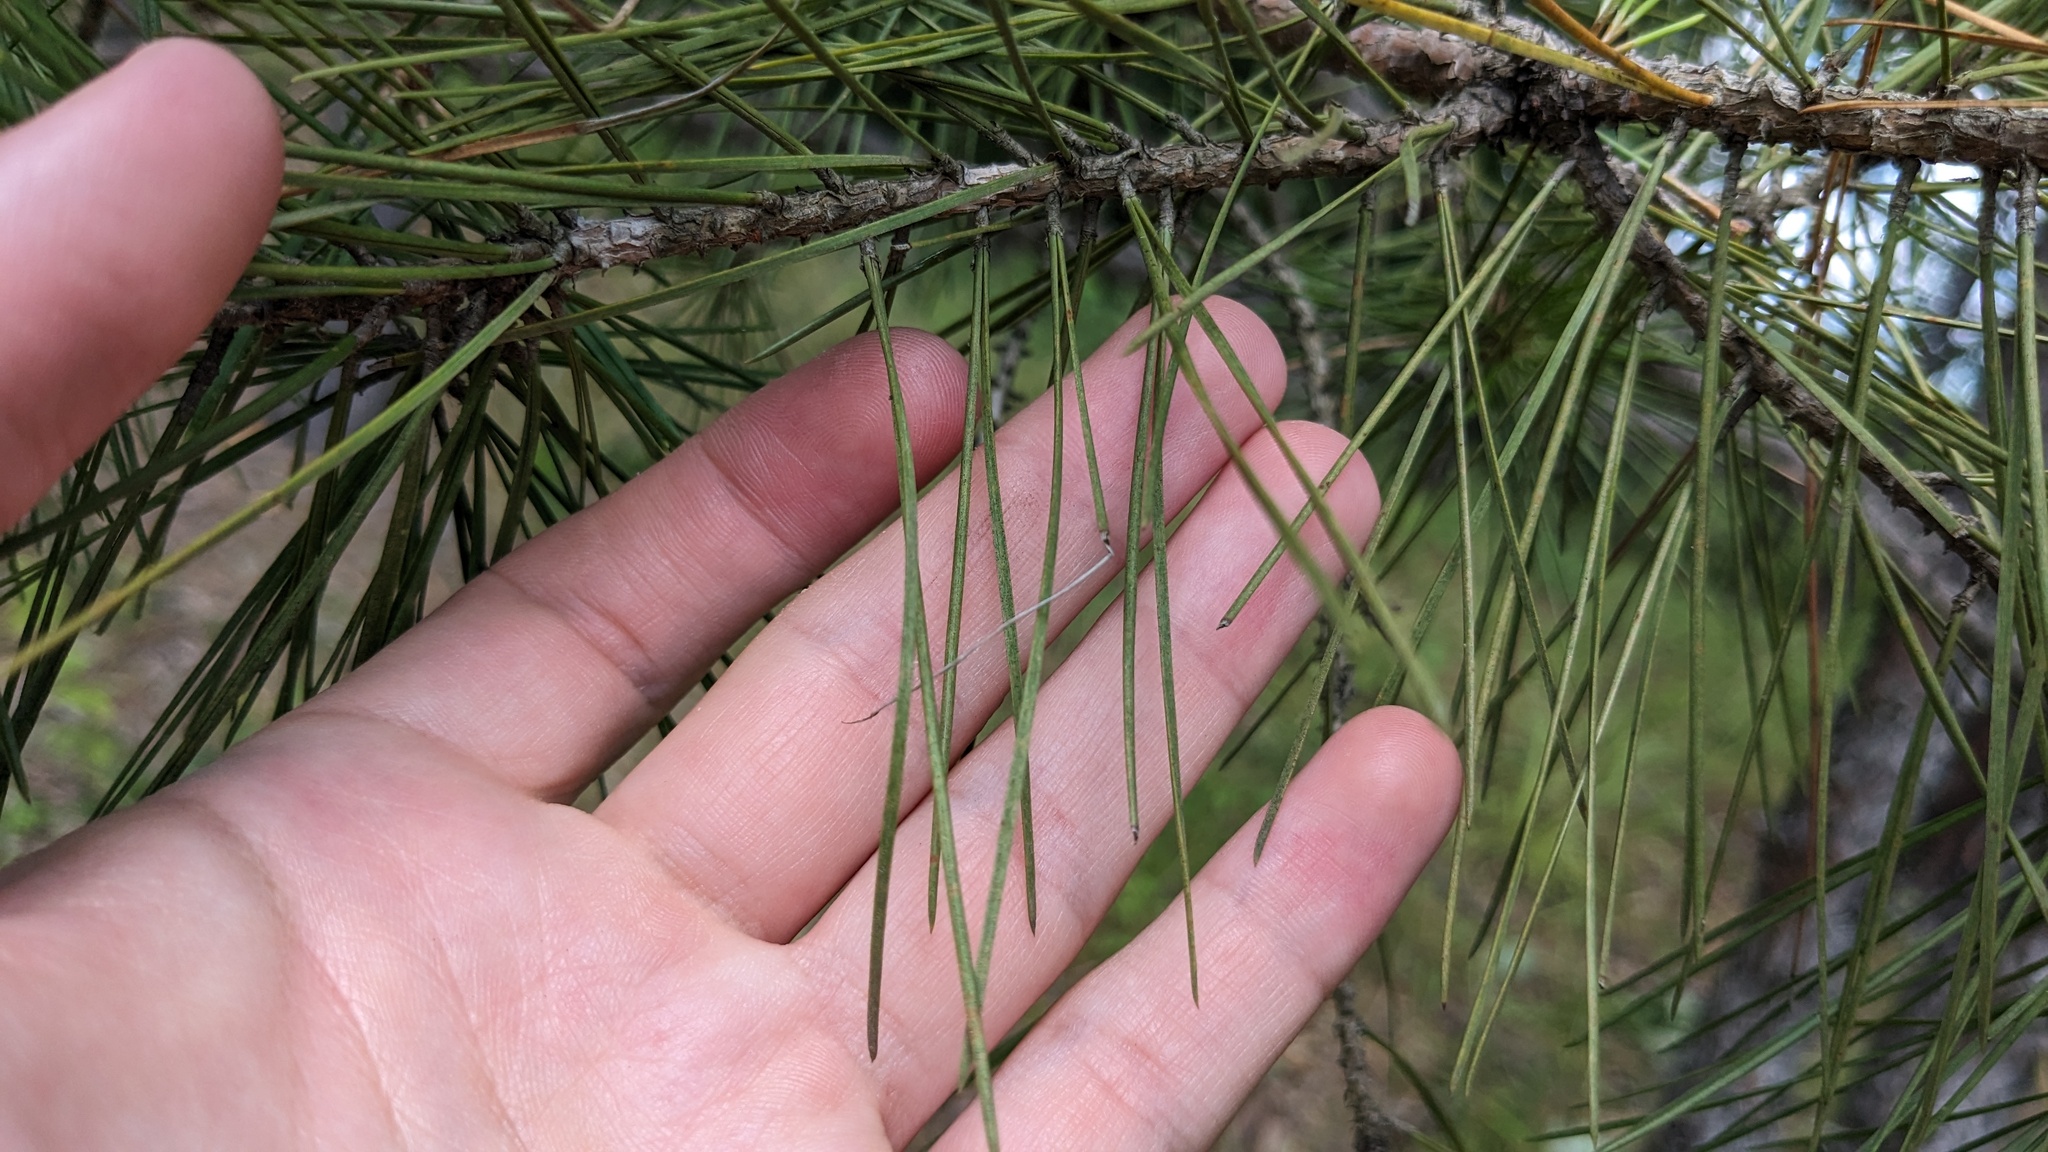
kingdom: Plantae
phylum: Tracheophyta
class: Pinopsida
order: Pinales
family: Pinaceae
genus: Pinus
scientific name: Pinus echinata
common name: Shortleaf pine
